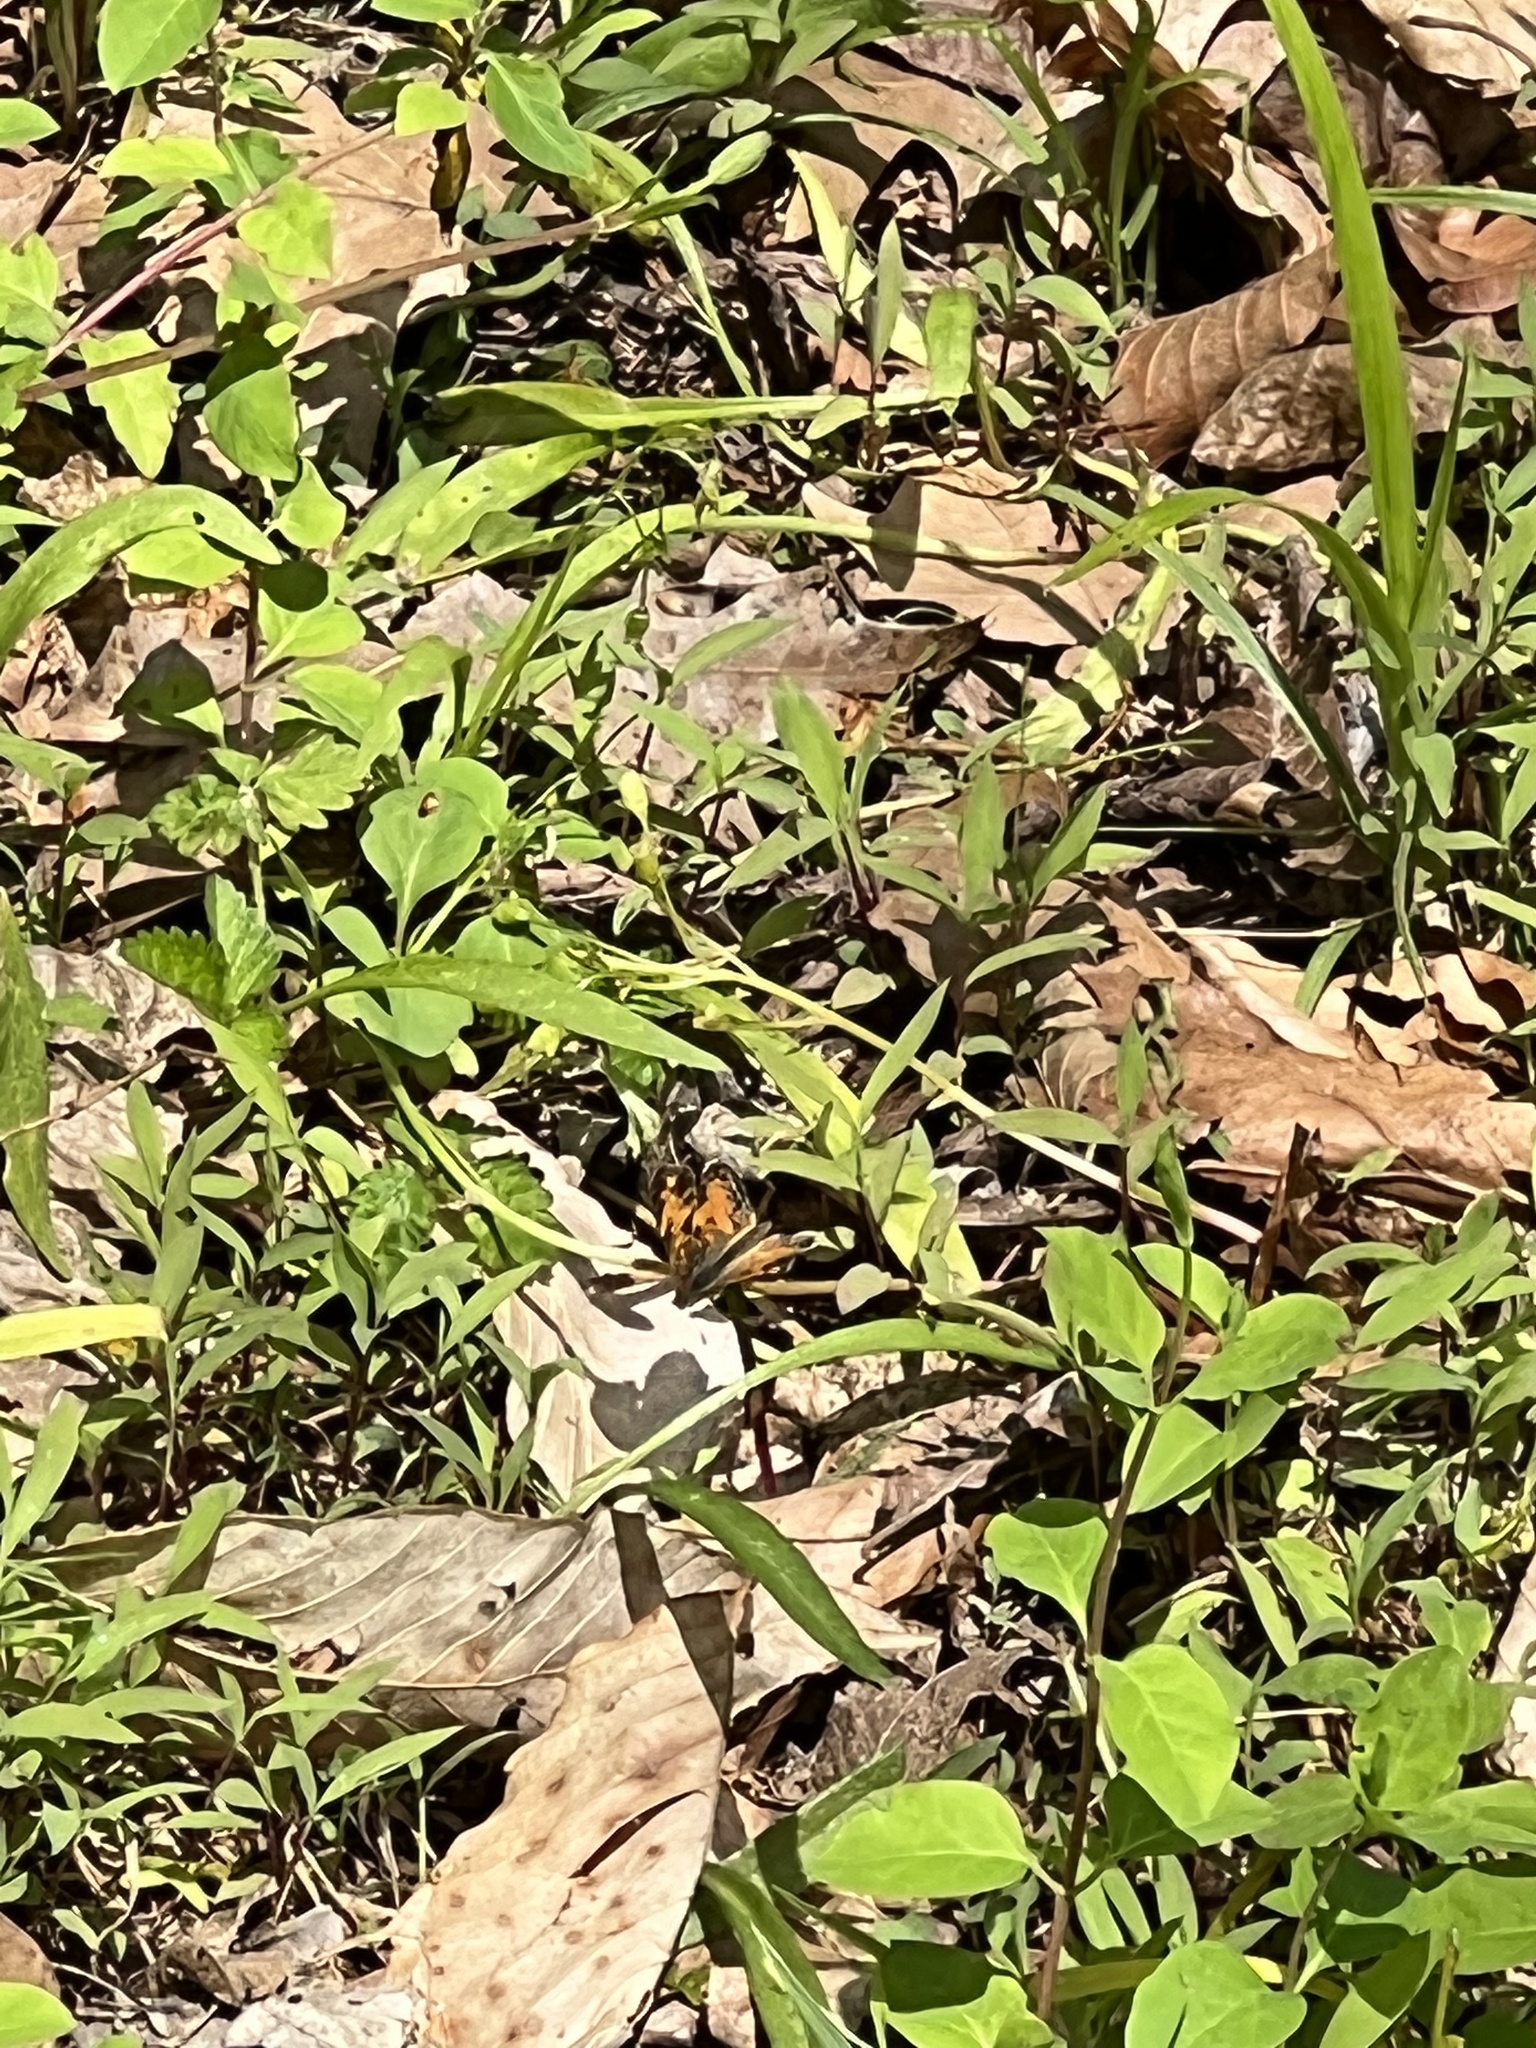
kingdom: Animalia
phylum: Arthropoda
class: Insecta
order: Lepidoptera
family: Nymphalidae
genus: Phyciodes
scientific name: Phyciodes tharos
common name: Pearl crescent
